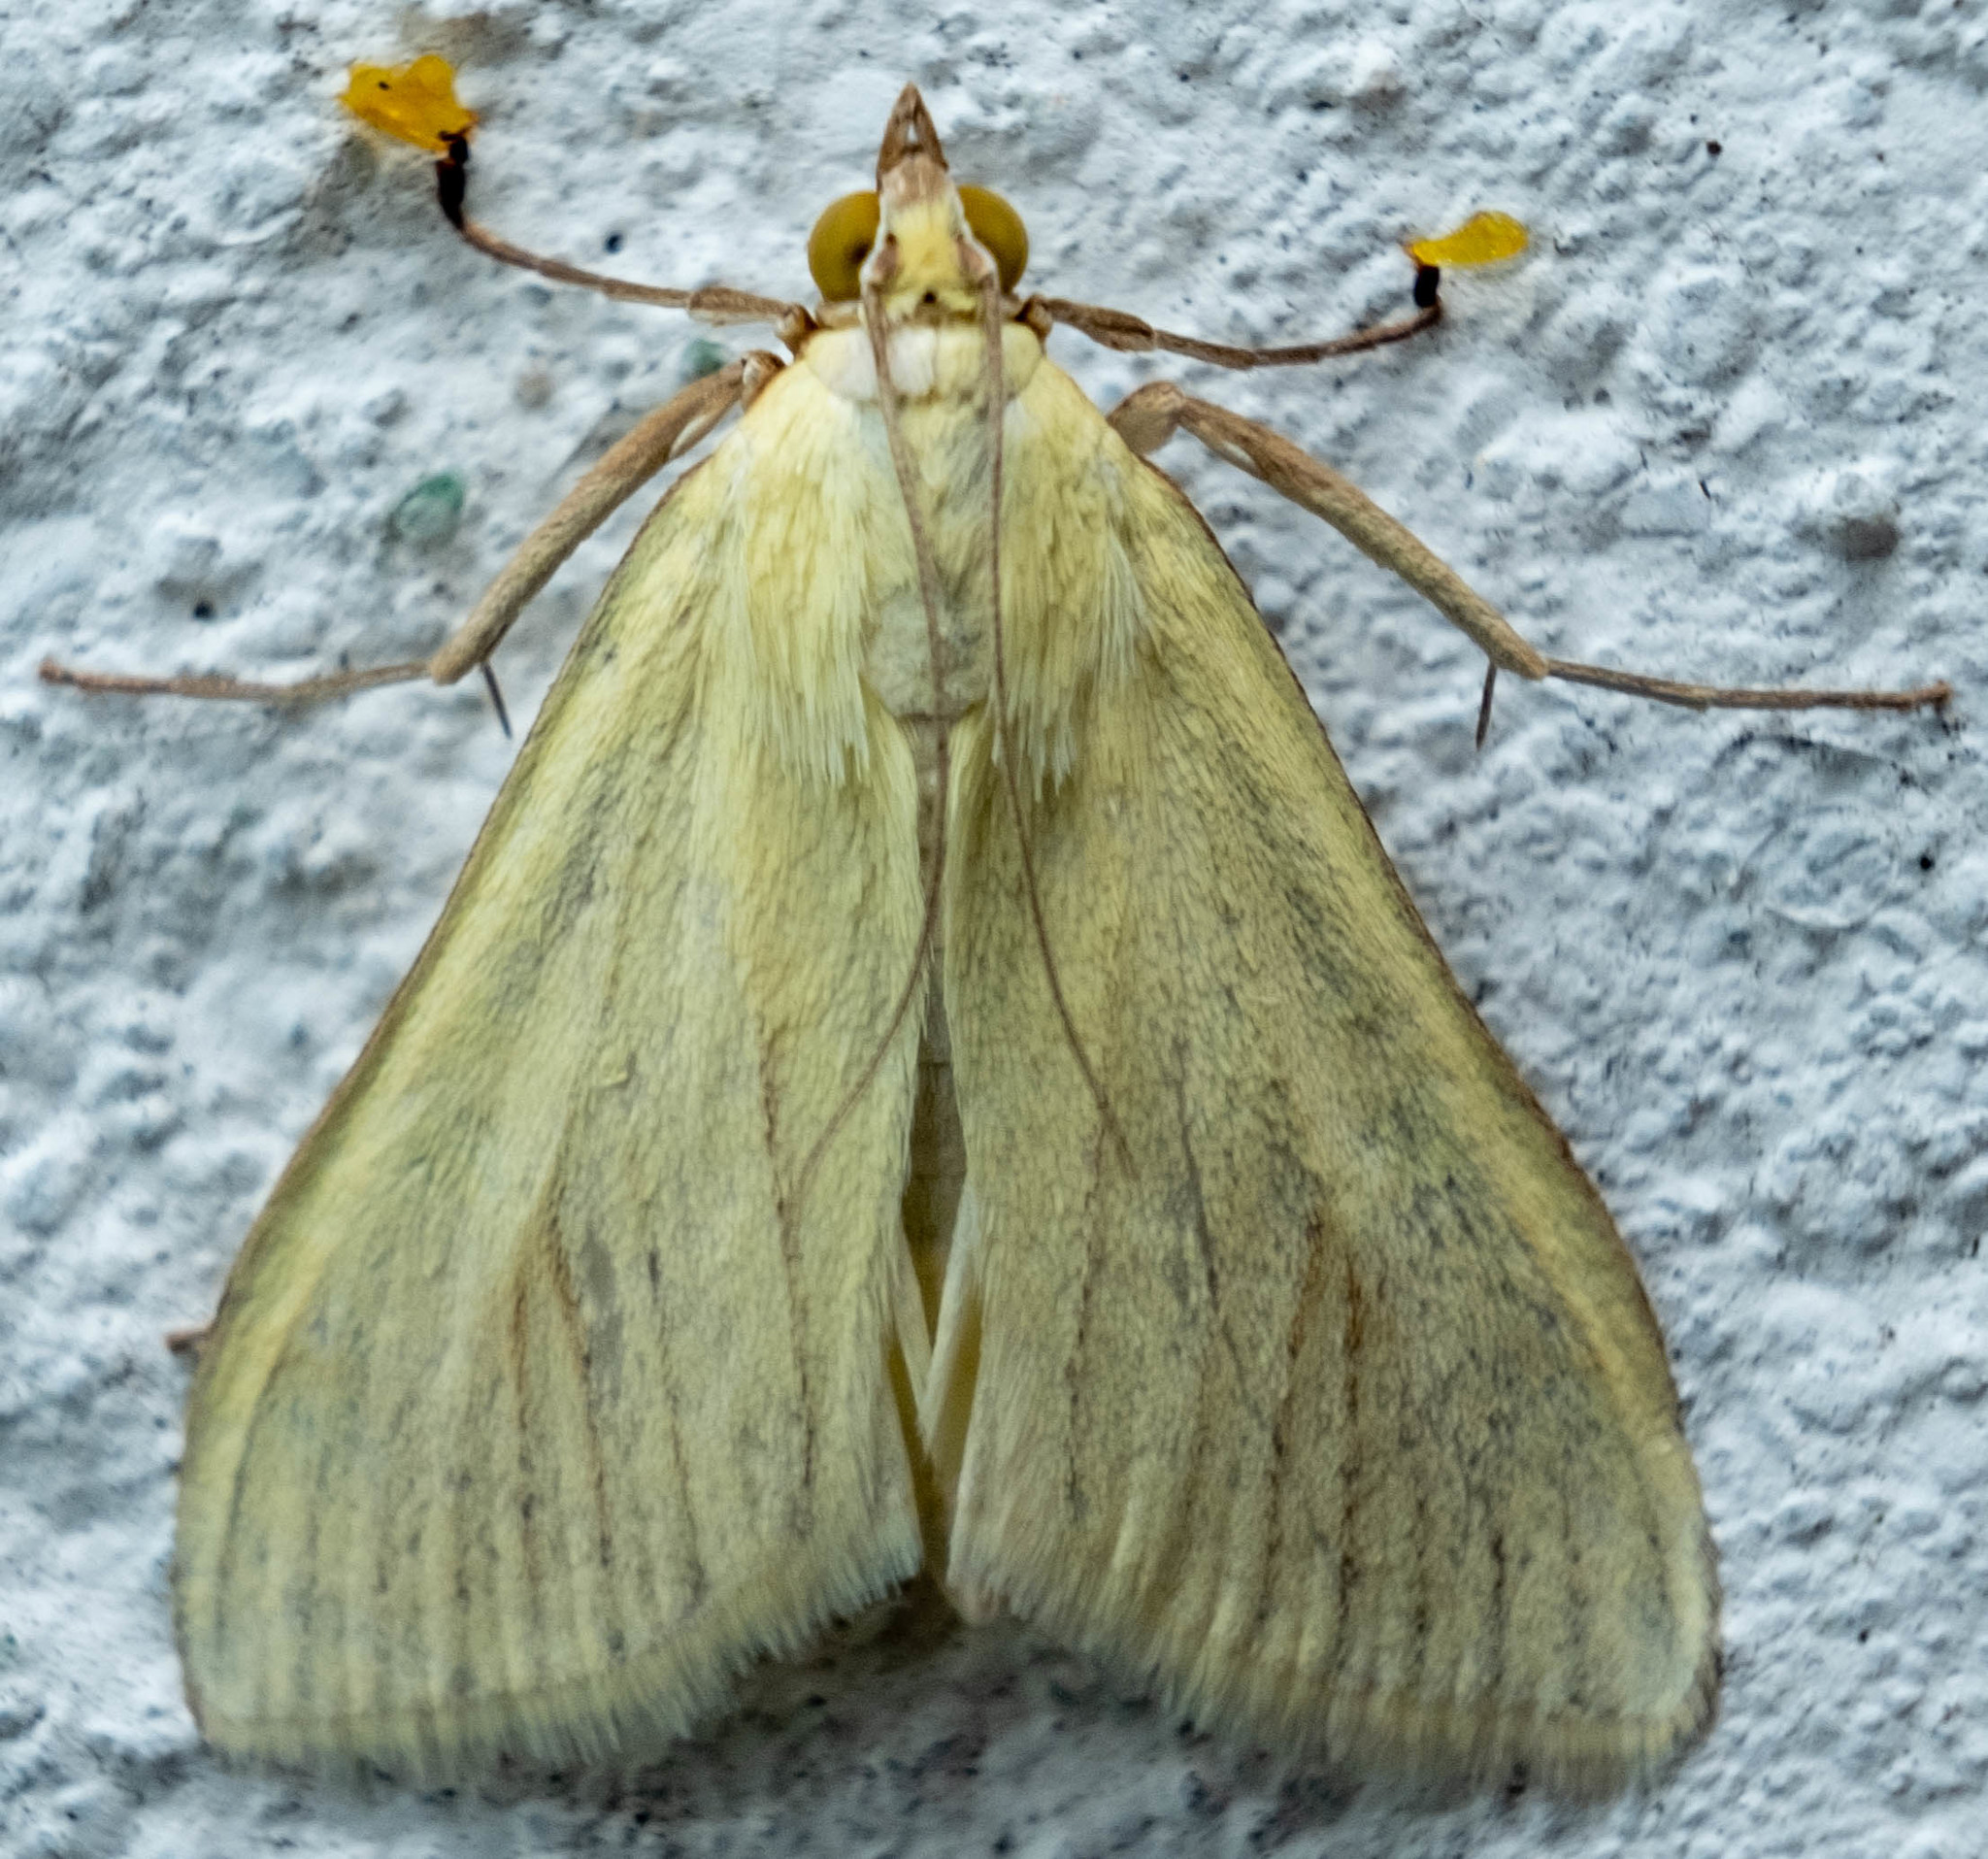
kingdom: Animalia
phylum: Arthropoda
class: Insecta
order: Lepidoptera
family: Crambidae
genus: Sitochroa
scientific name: Sitochroa palealis
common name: Greenish-yellow sitochroa moth
